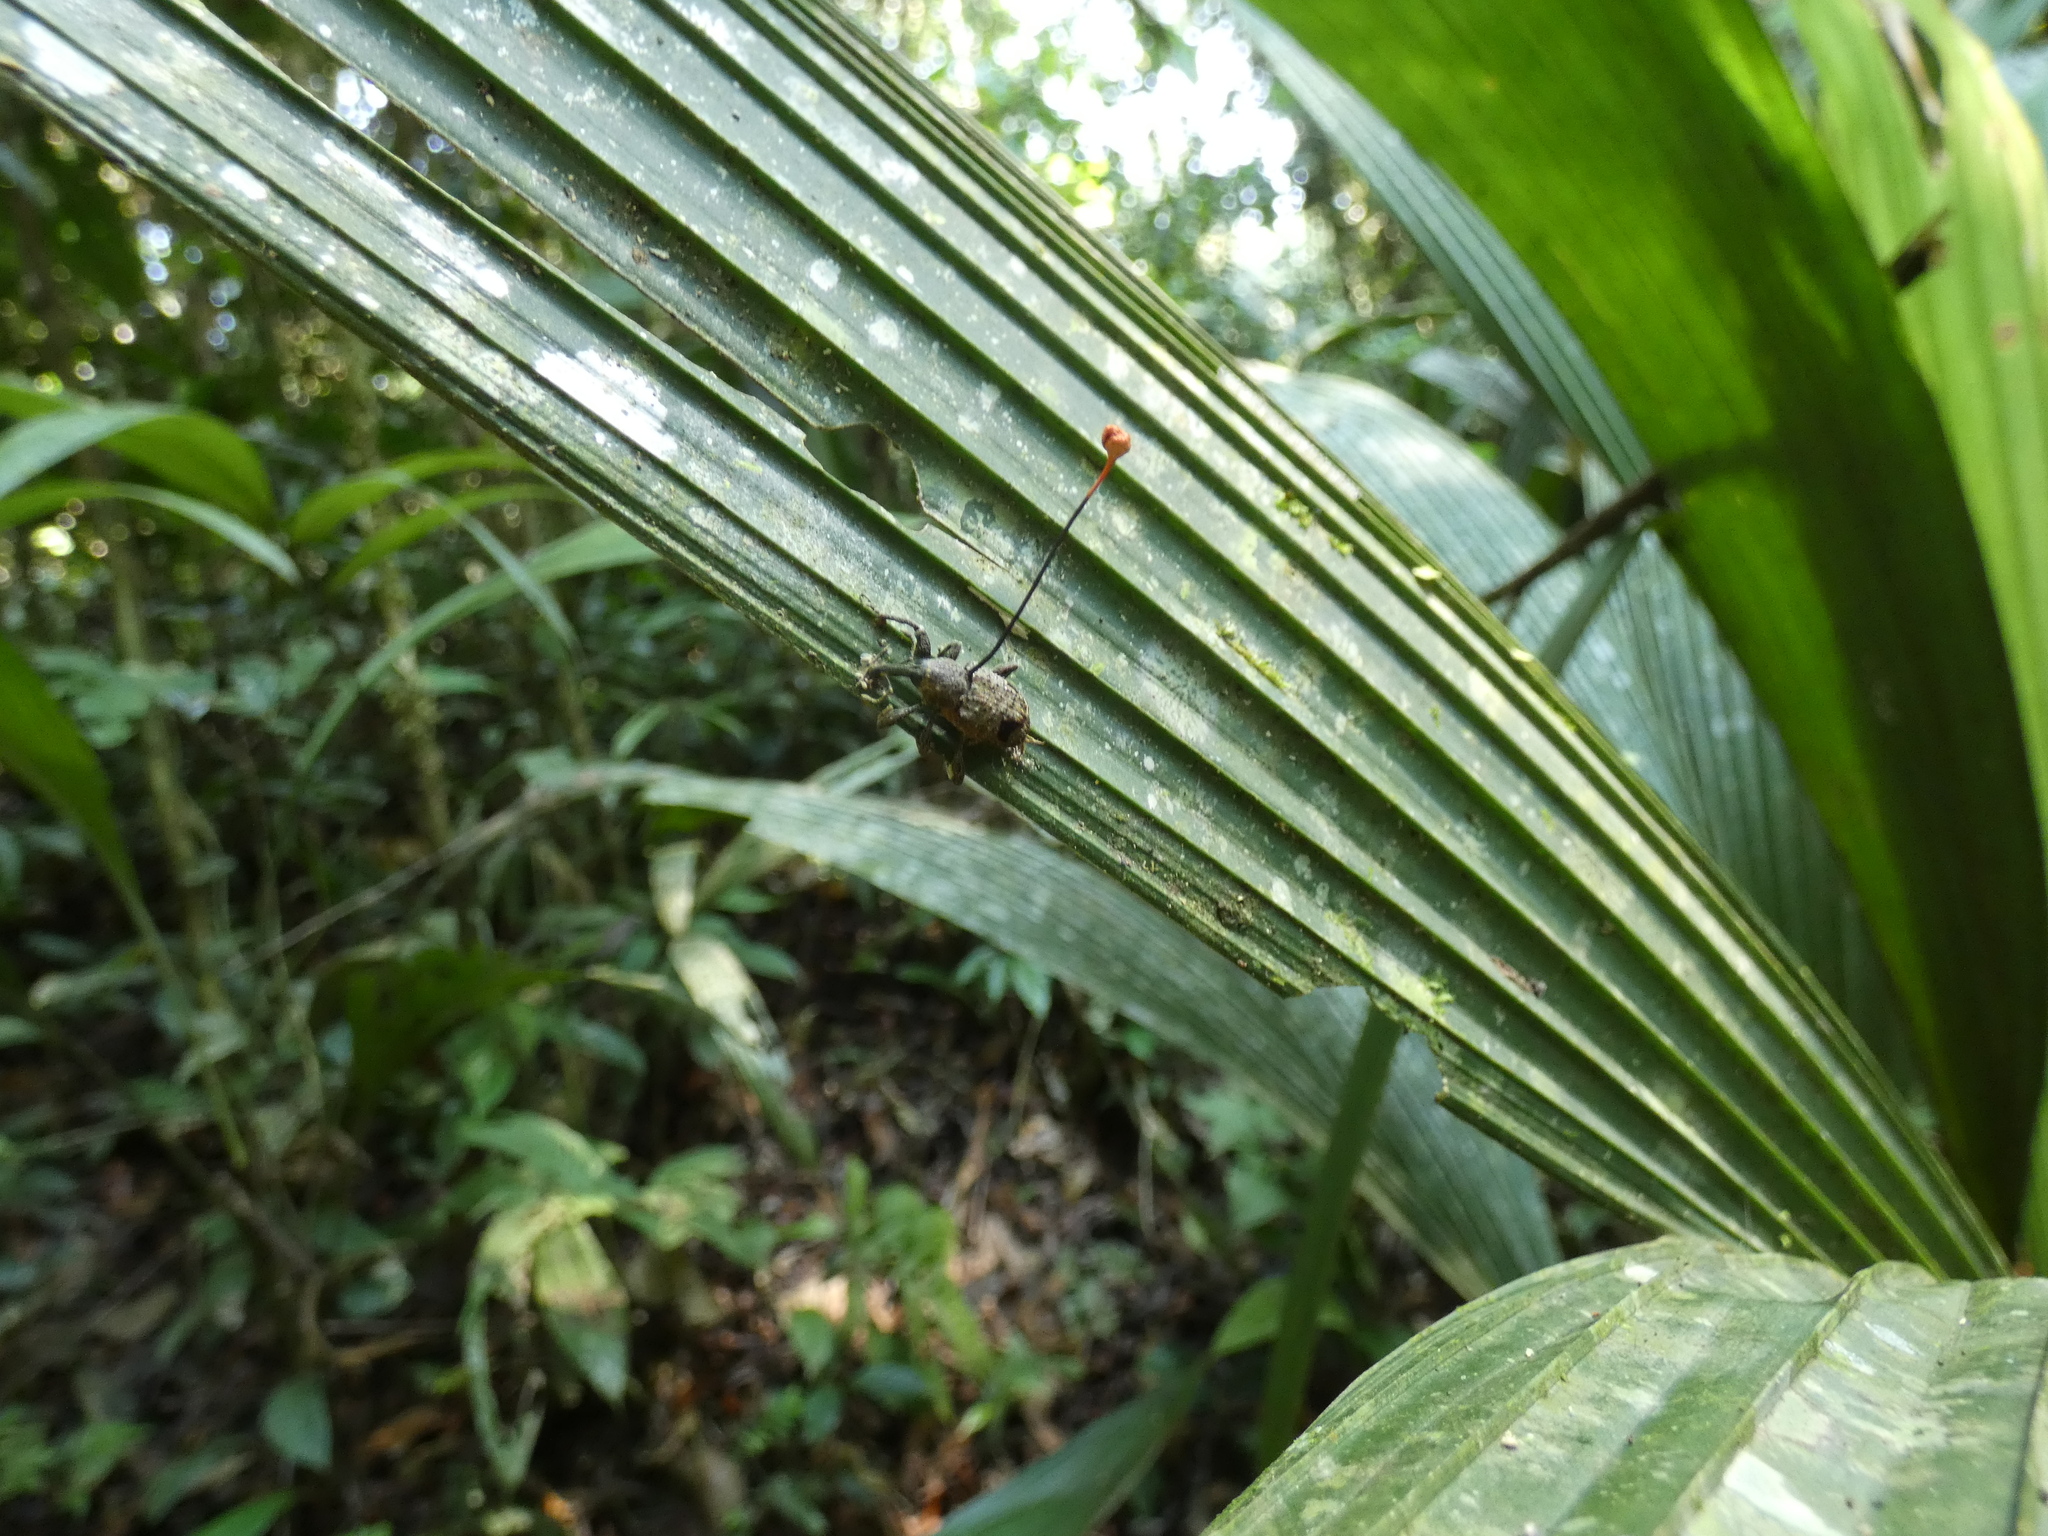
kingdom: Fungi
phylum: Ascomycota
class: Sordariomycetes
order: Hypocreales
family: Ophiocordycipitaceae
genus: Ophiocordyceps
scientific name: Ophiocordyceps curculionum
